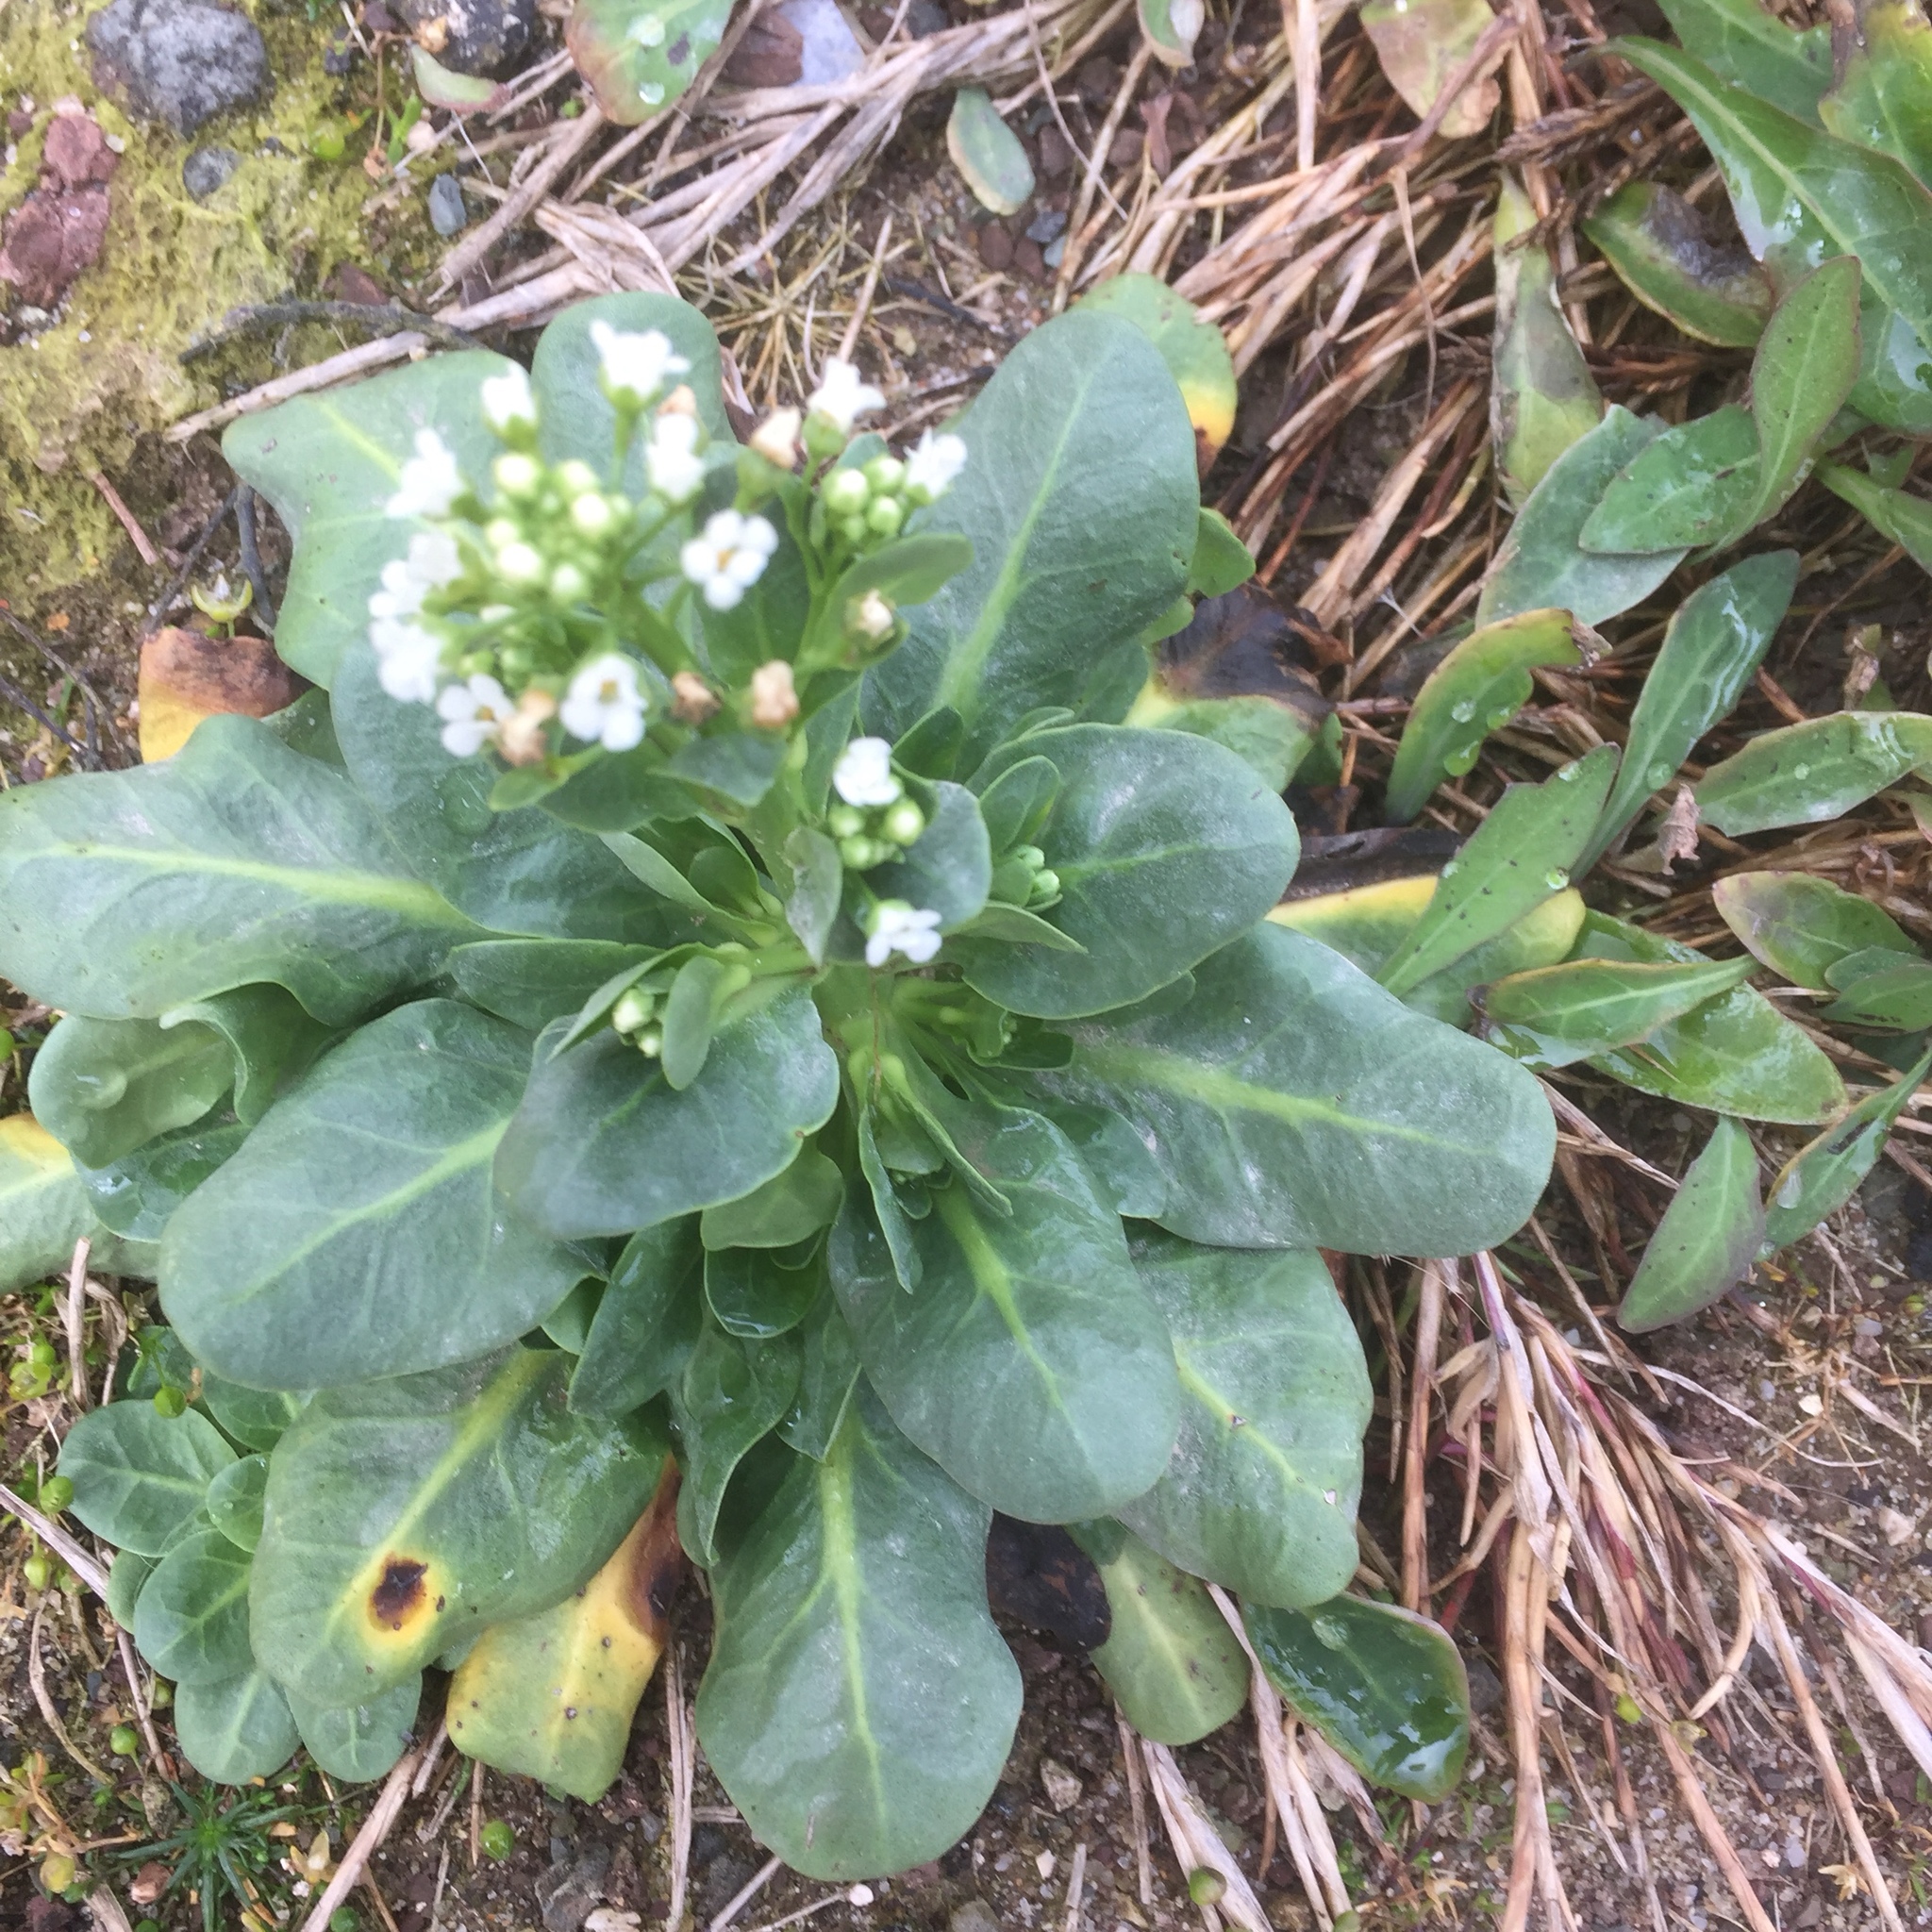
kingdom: Plantae
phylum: Tracheophyta
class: Magnoliopsida
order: Ericales
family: Primulaceae
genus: Samolus
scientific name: Samolus valerandi
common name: Brookweed
